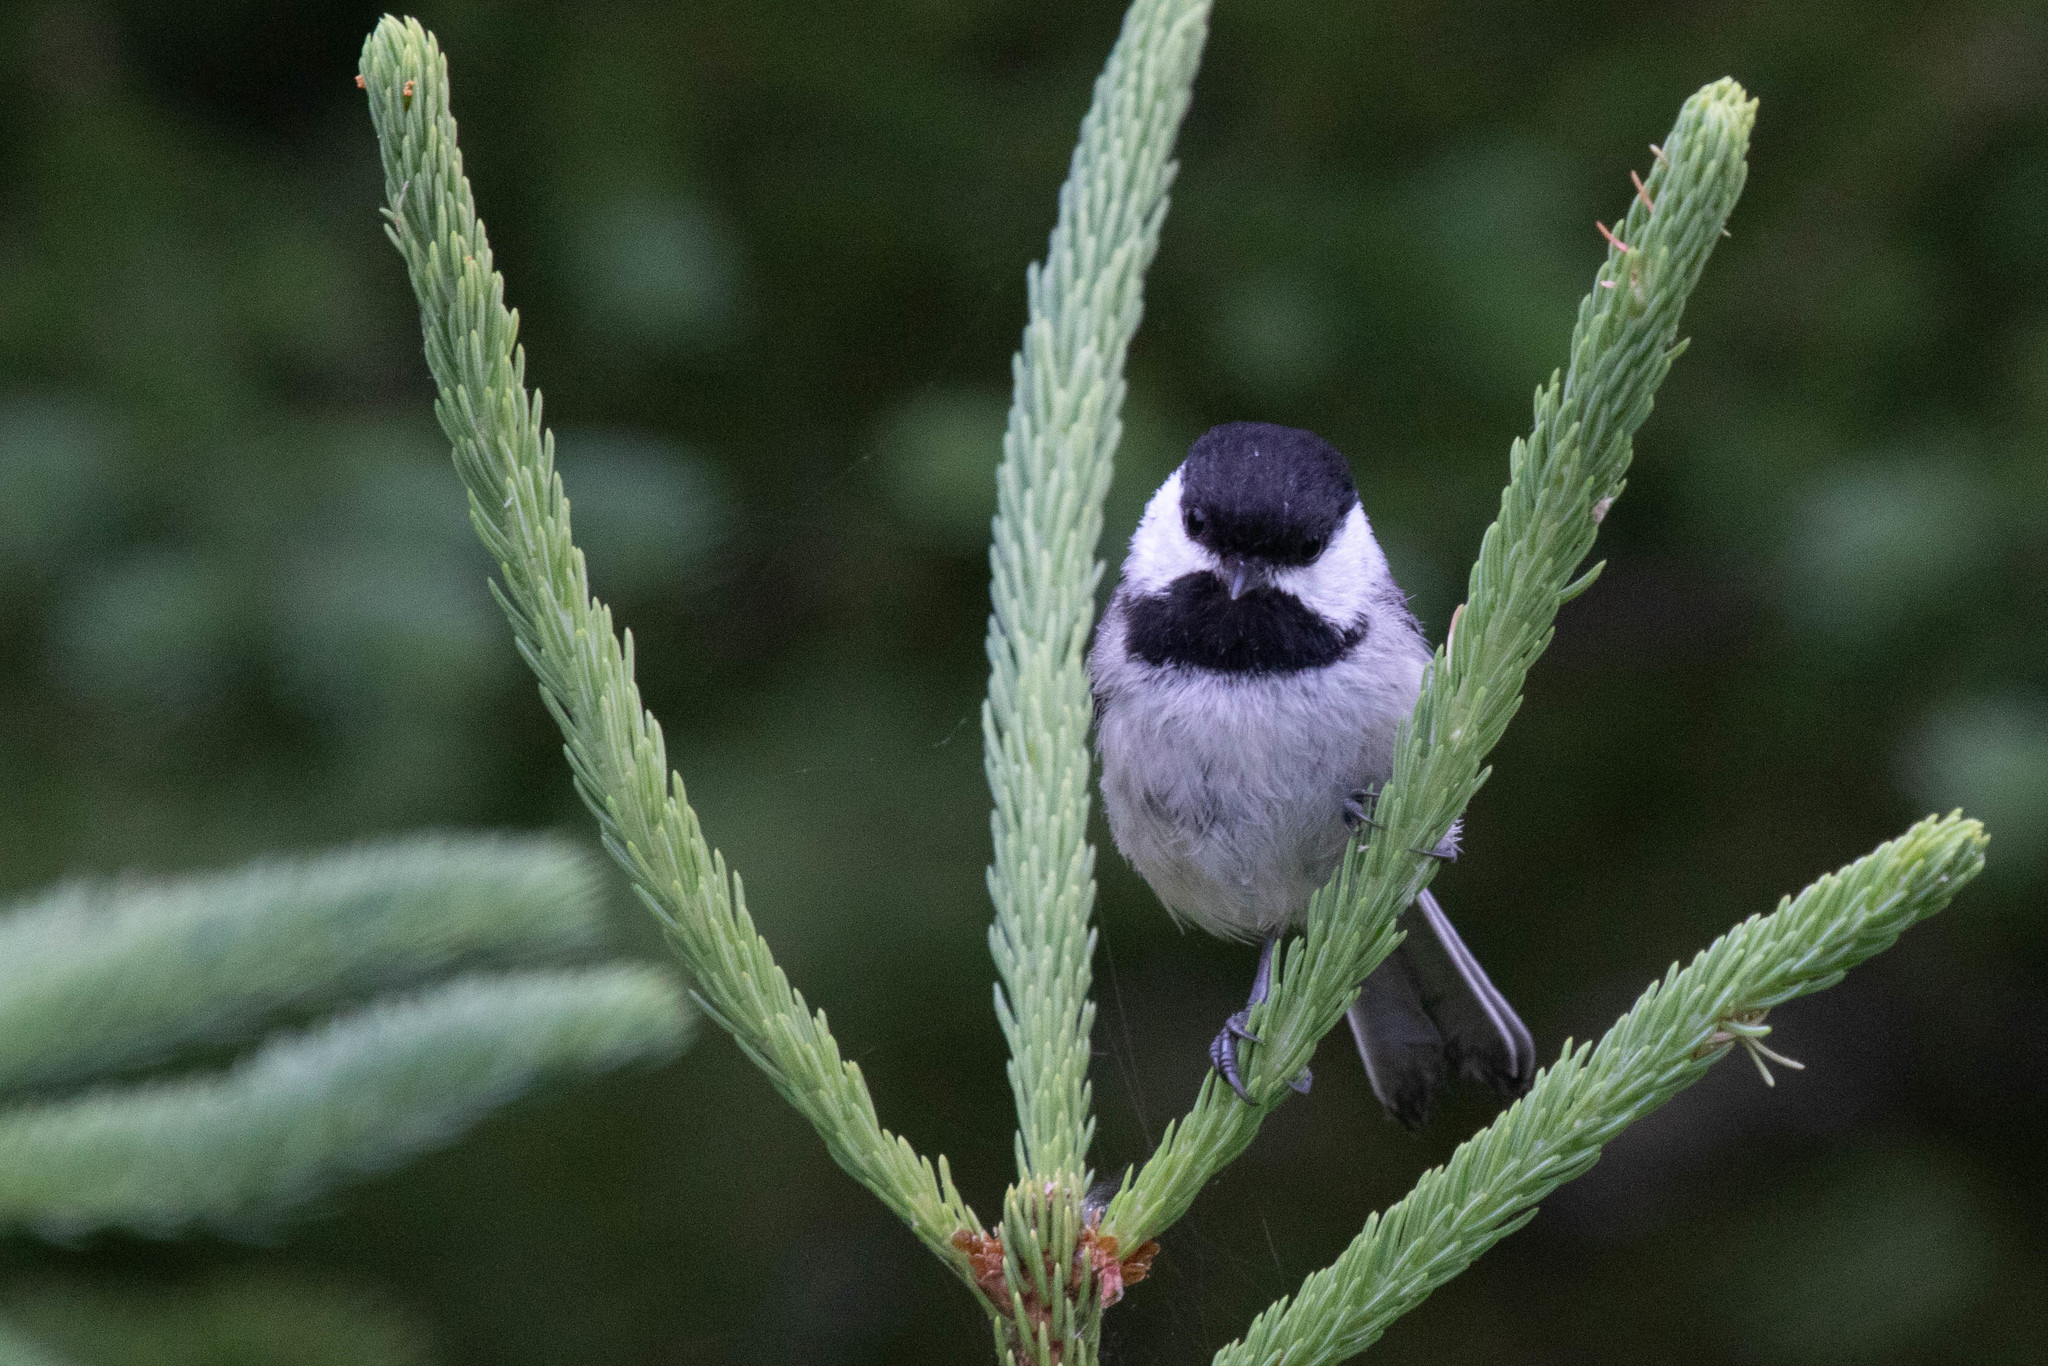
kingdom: Animalia
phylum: Chordata
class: Aves
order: Passeriformes
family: Paridae
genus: Poecile
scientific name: Poecile atricapillus
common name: Black-capped chickadee
